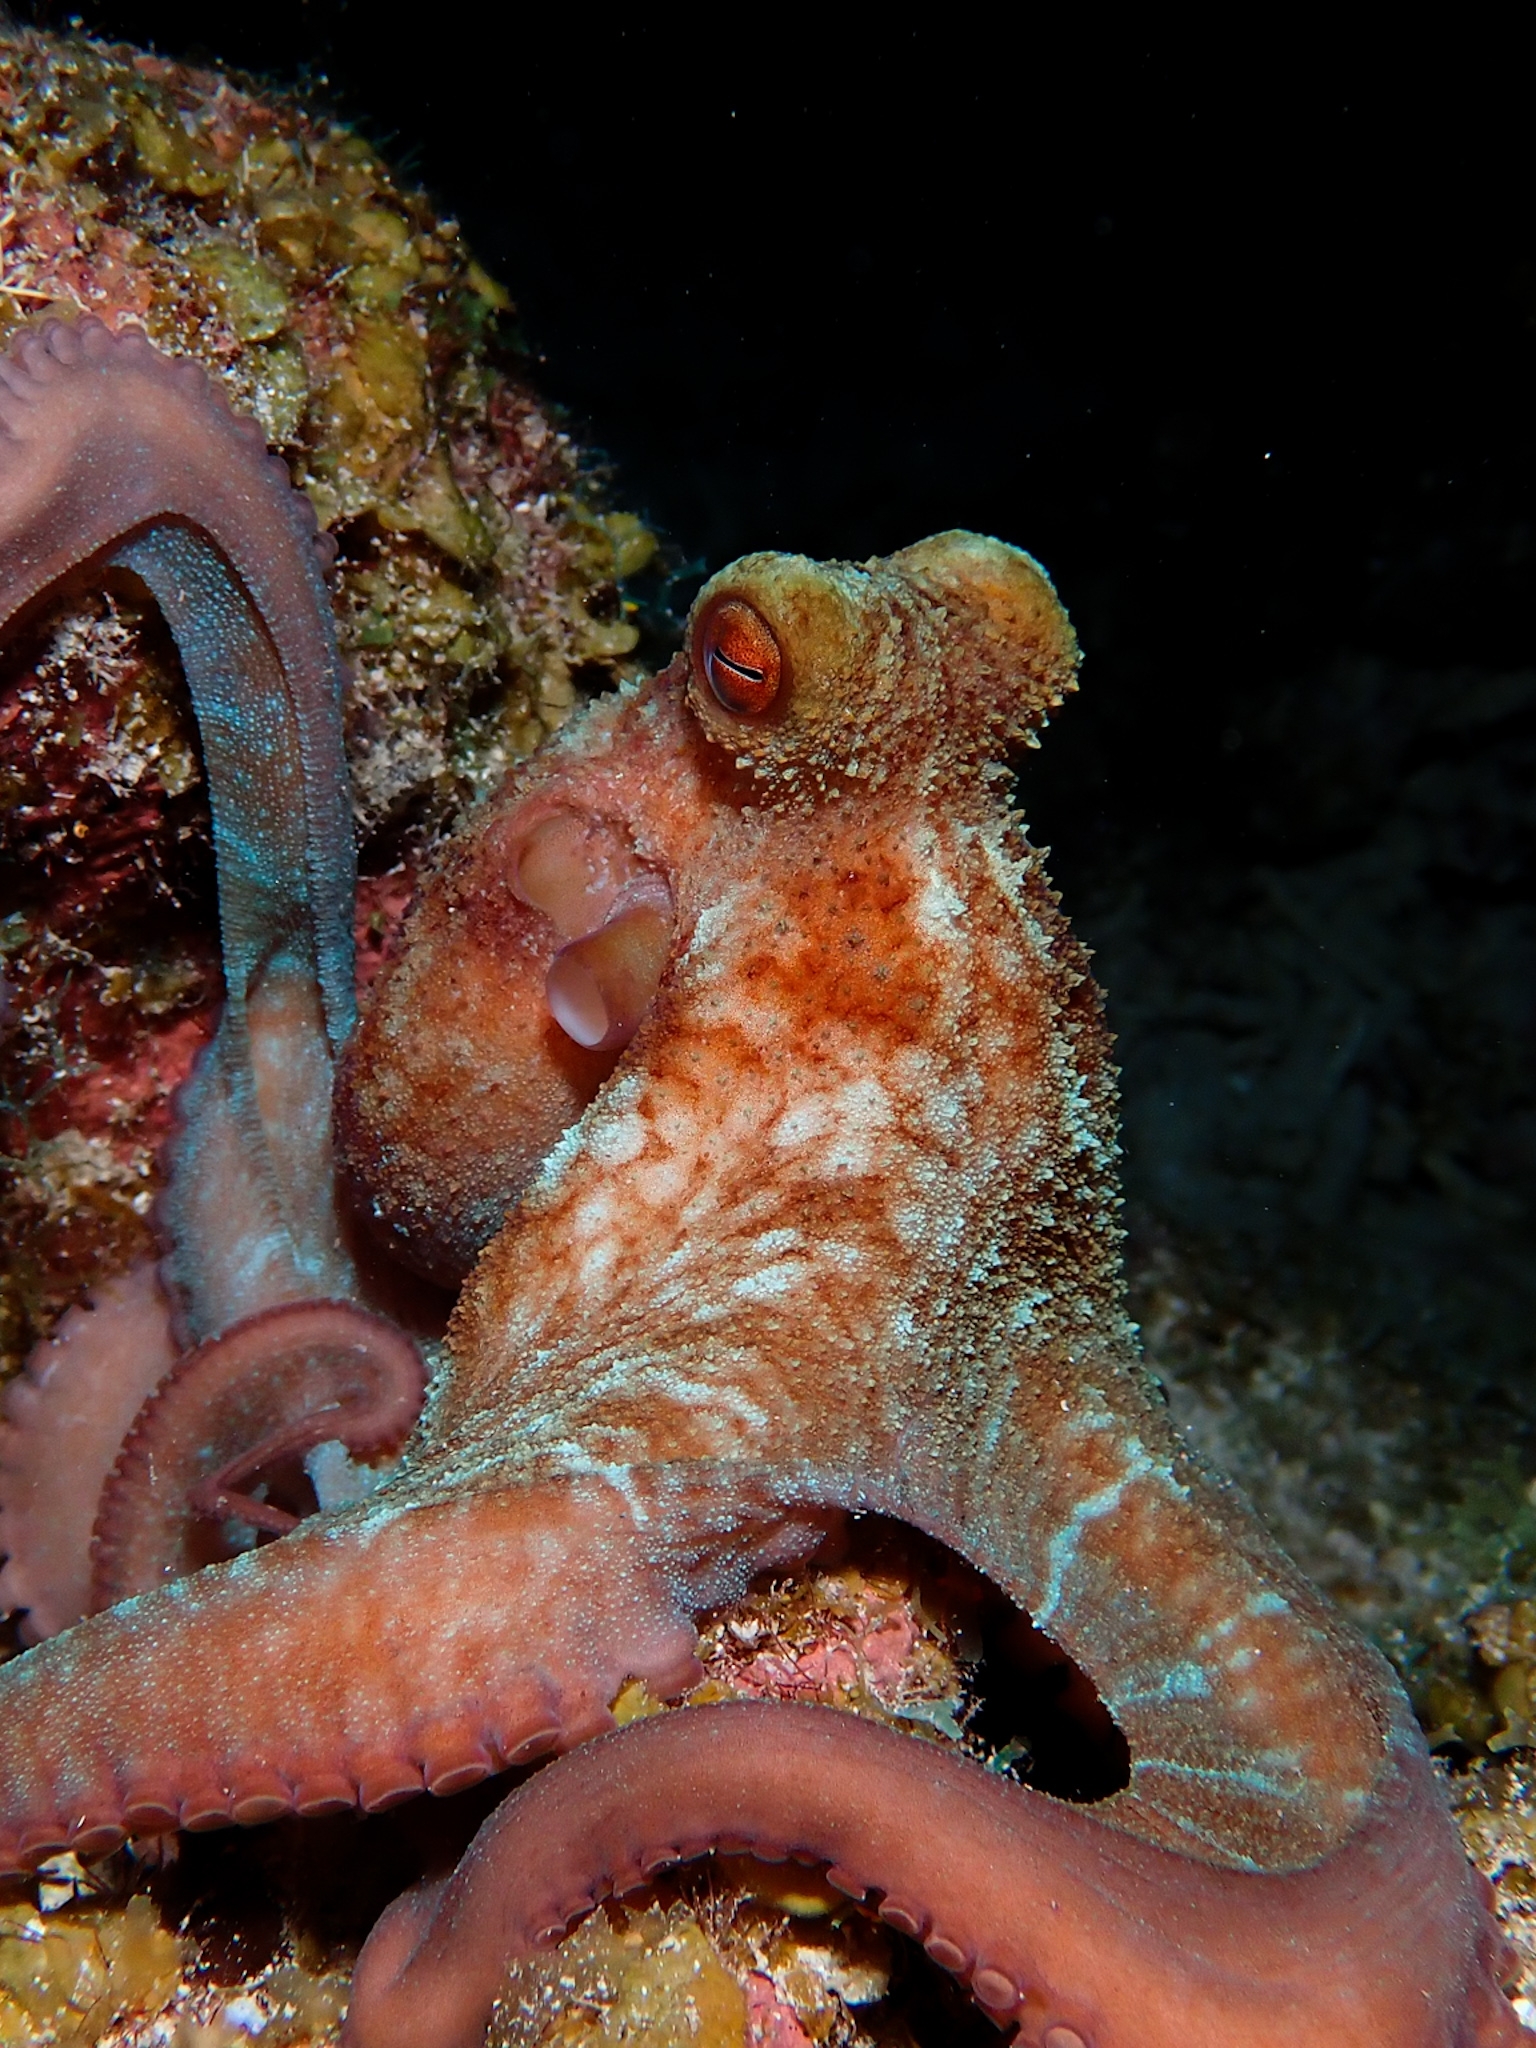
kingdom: Animalia
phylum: Mollusca
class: Cephalopoda
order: Octopoda
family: Octopodidae
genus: Octopus
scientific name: Octopus briareus
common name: Caribbean reef octopus
